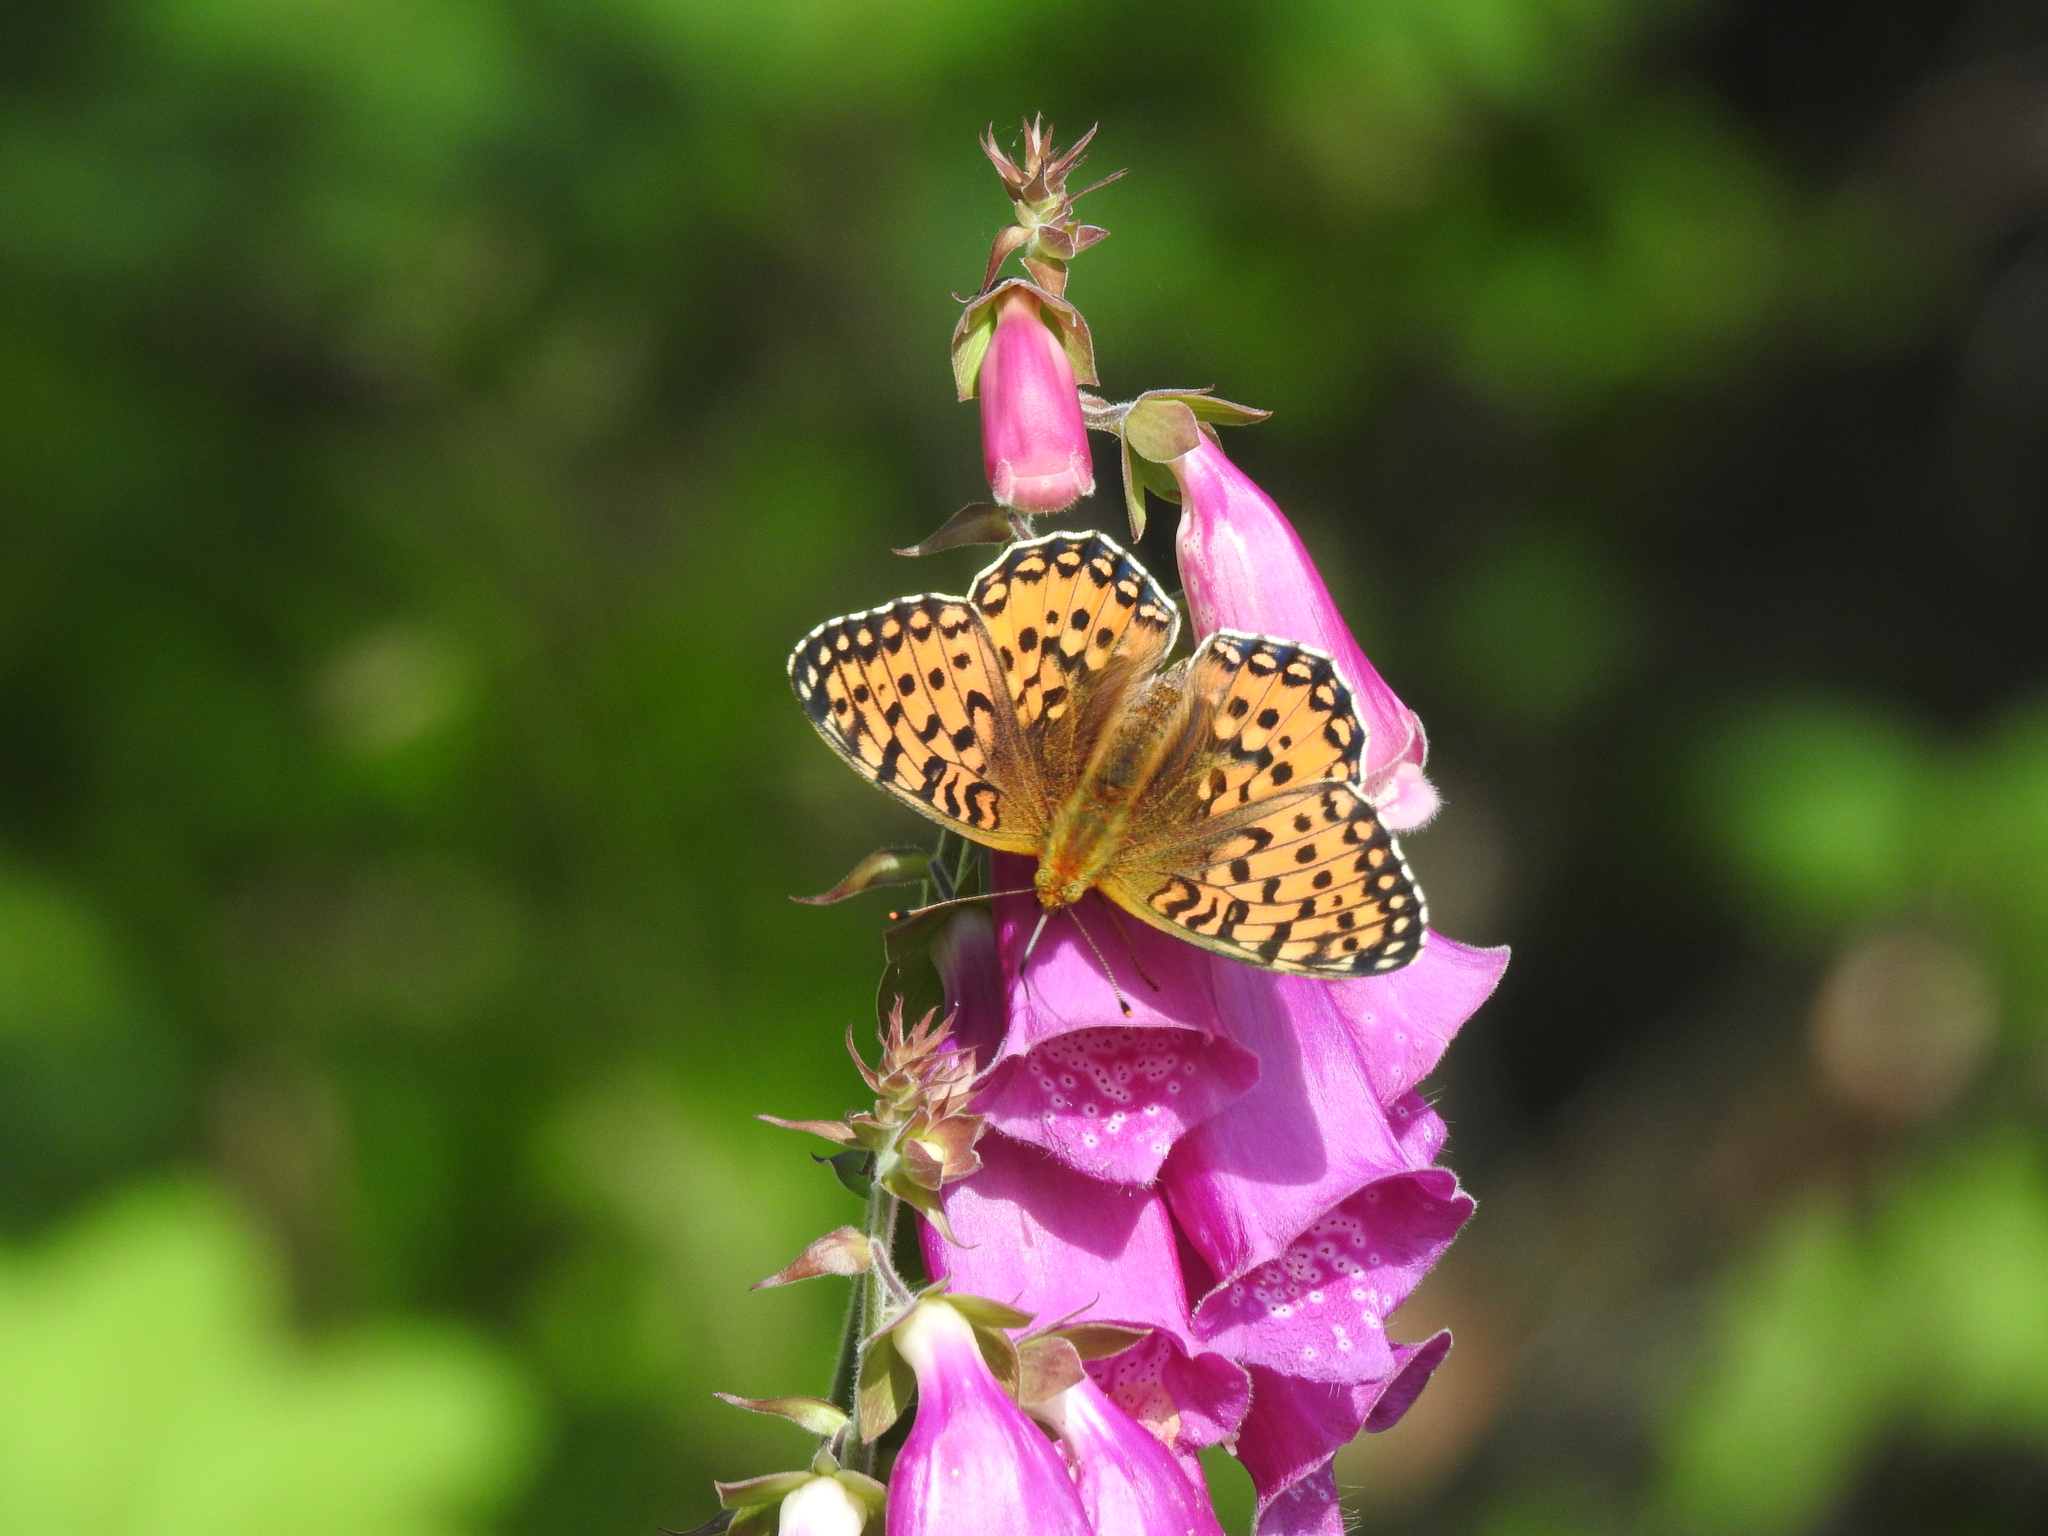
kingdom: Animalia
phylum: Arthropoda
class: Insecta
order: Lepidoptera
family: Nymphalidae
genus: Speyeria
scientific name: Speyeria aglaja
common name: Dark green fritillary
